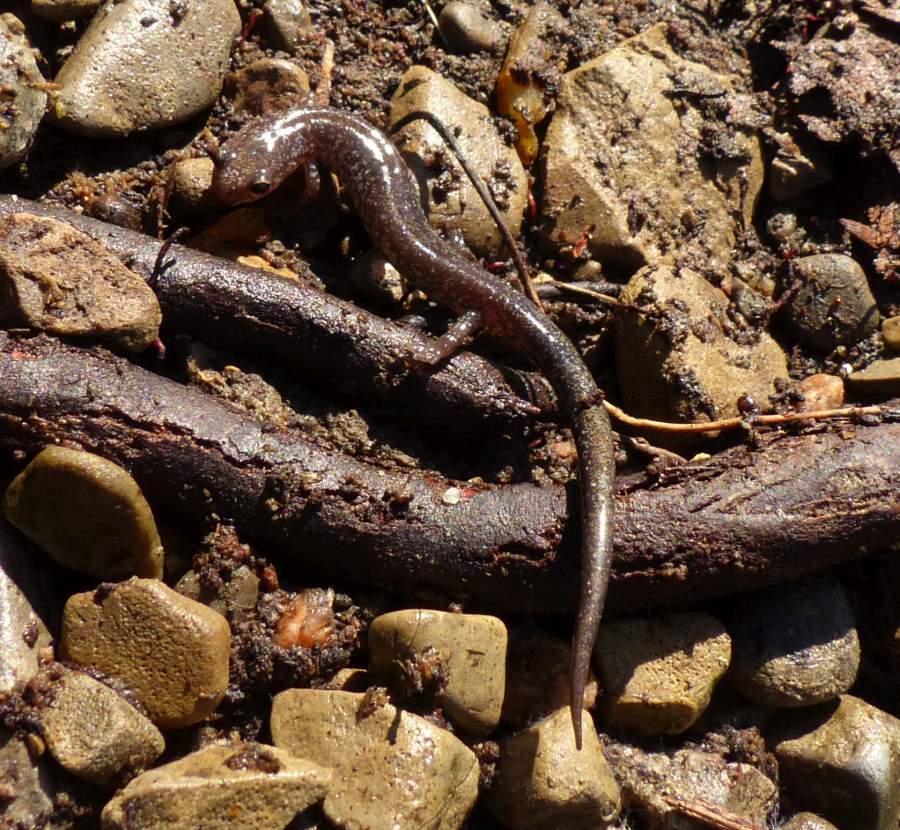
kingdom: Animalia
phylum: Chordata
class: Amphibia
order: Caudata
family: Plethodontidae
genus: Plethodon
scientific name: Plethodon cinereus
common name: Redback salamander
